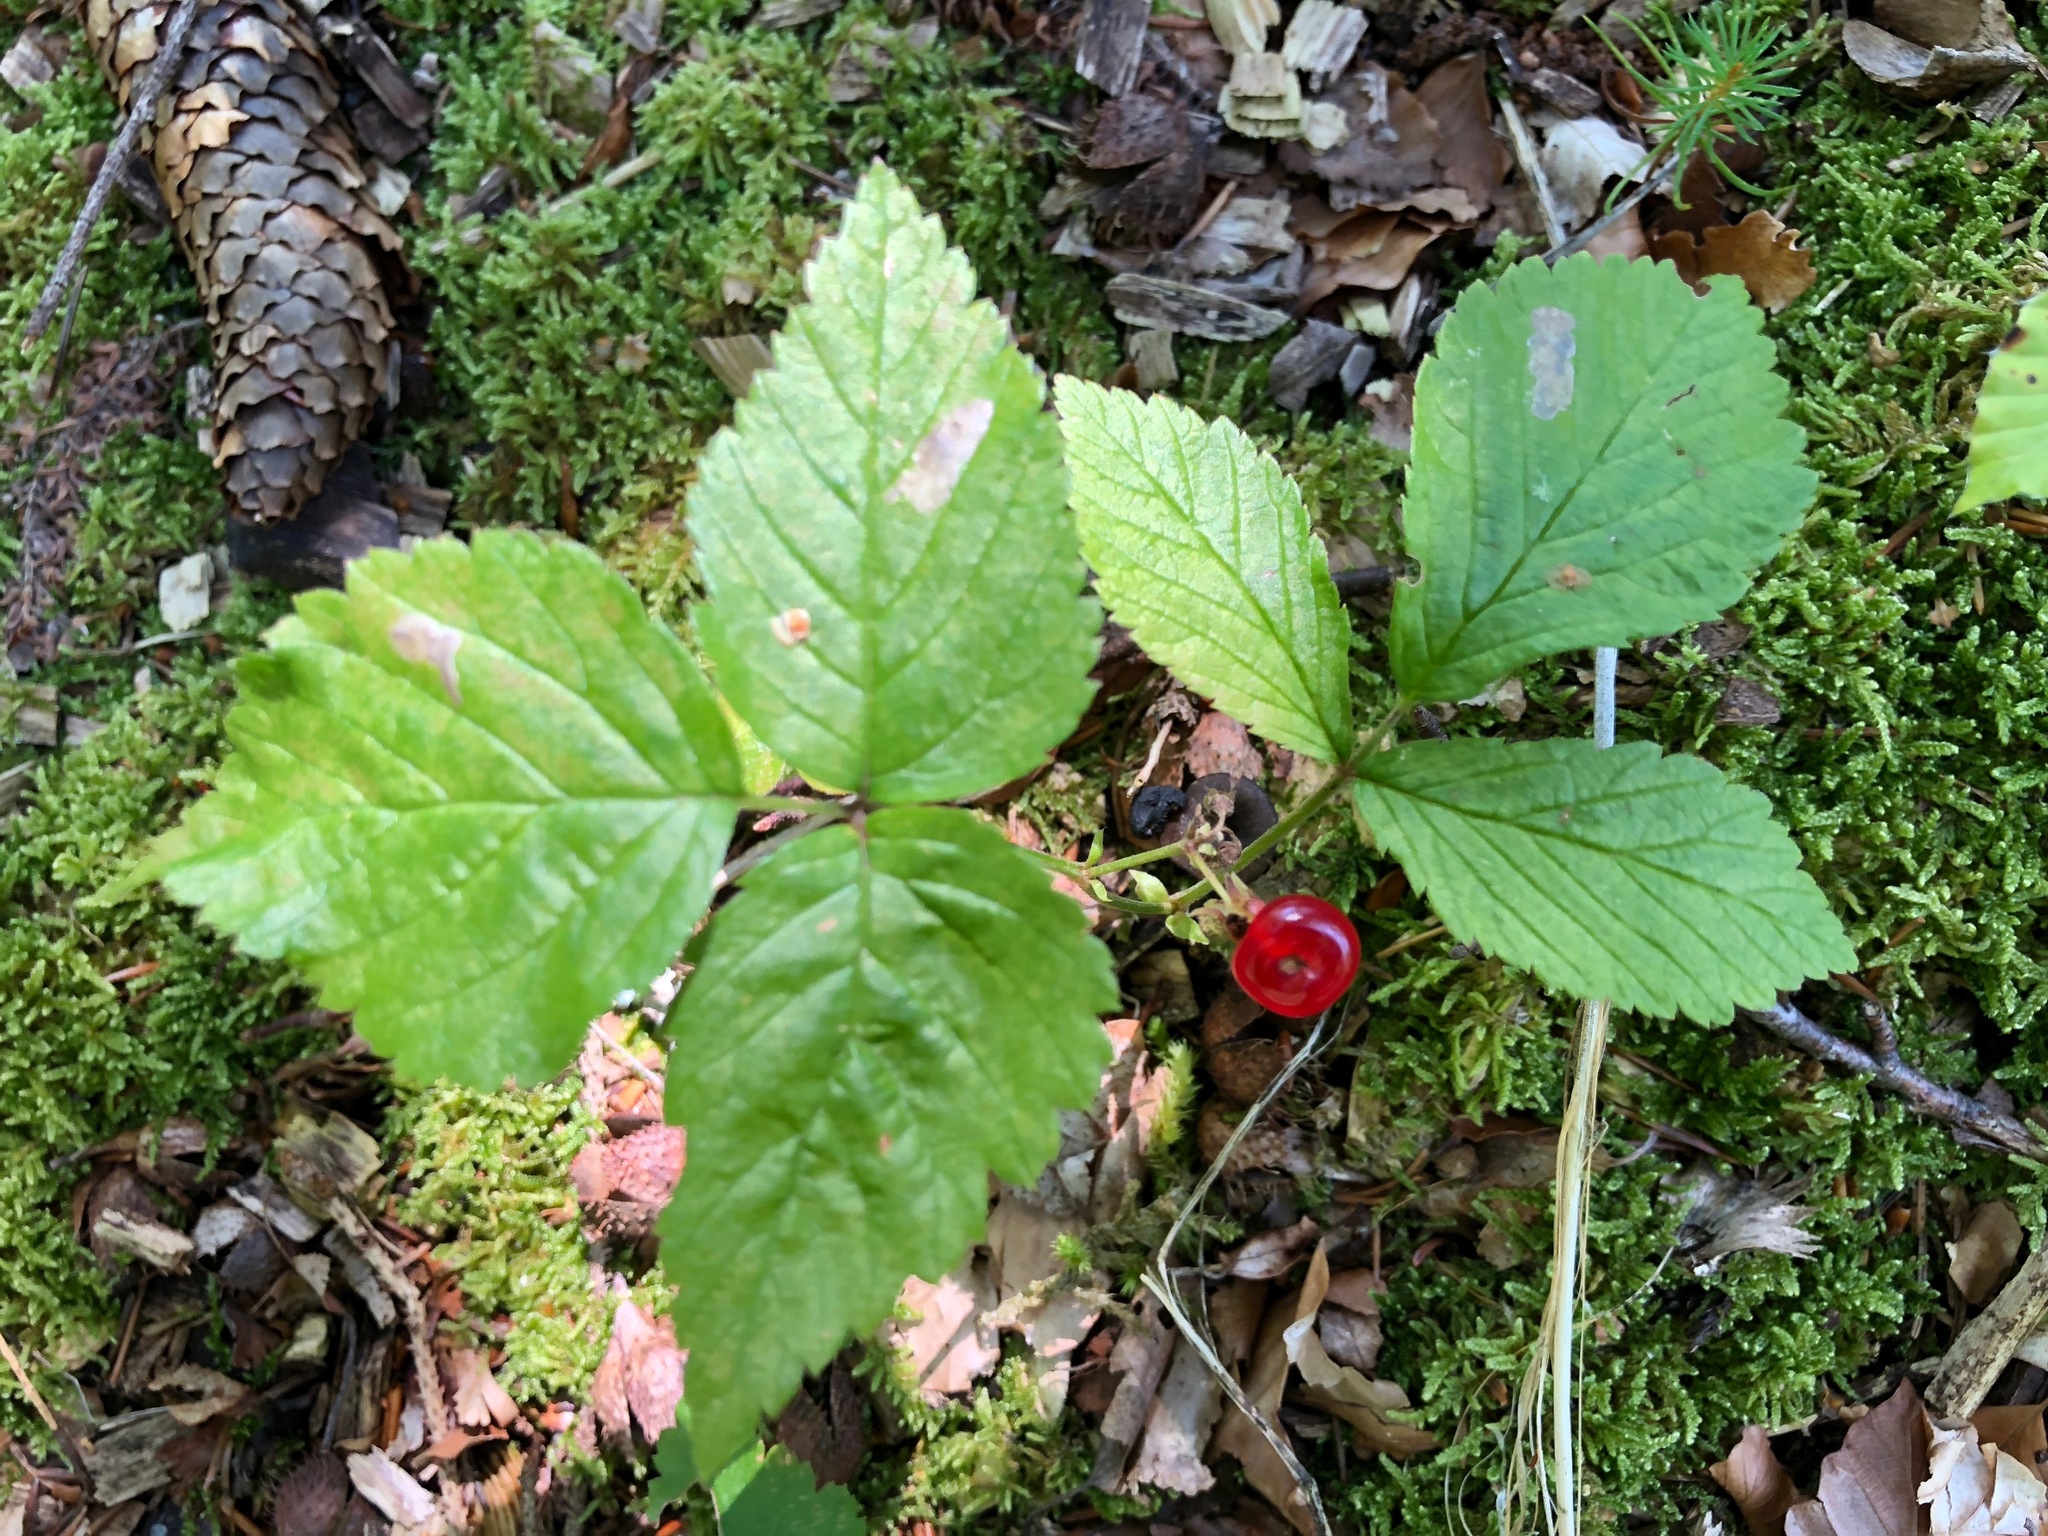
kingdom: Plantae
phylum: Tracheophyta
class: Magnoliopsida
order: Rosales
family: Rosaceae
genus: Rubus
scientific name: Rubus saxatilis
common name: Stone bramble
